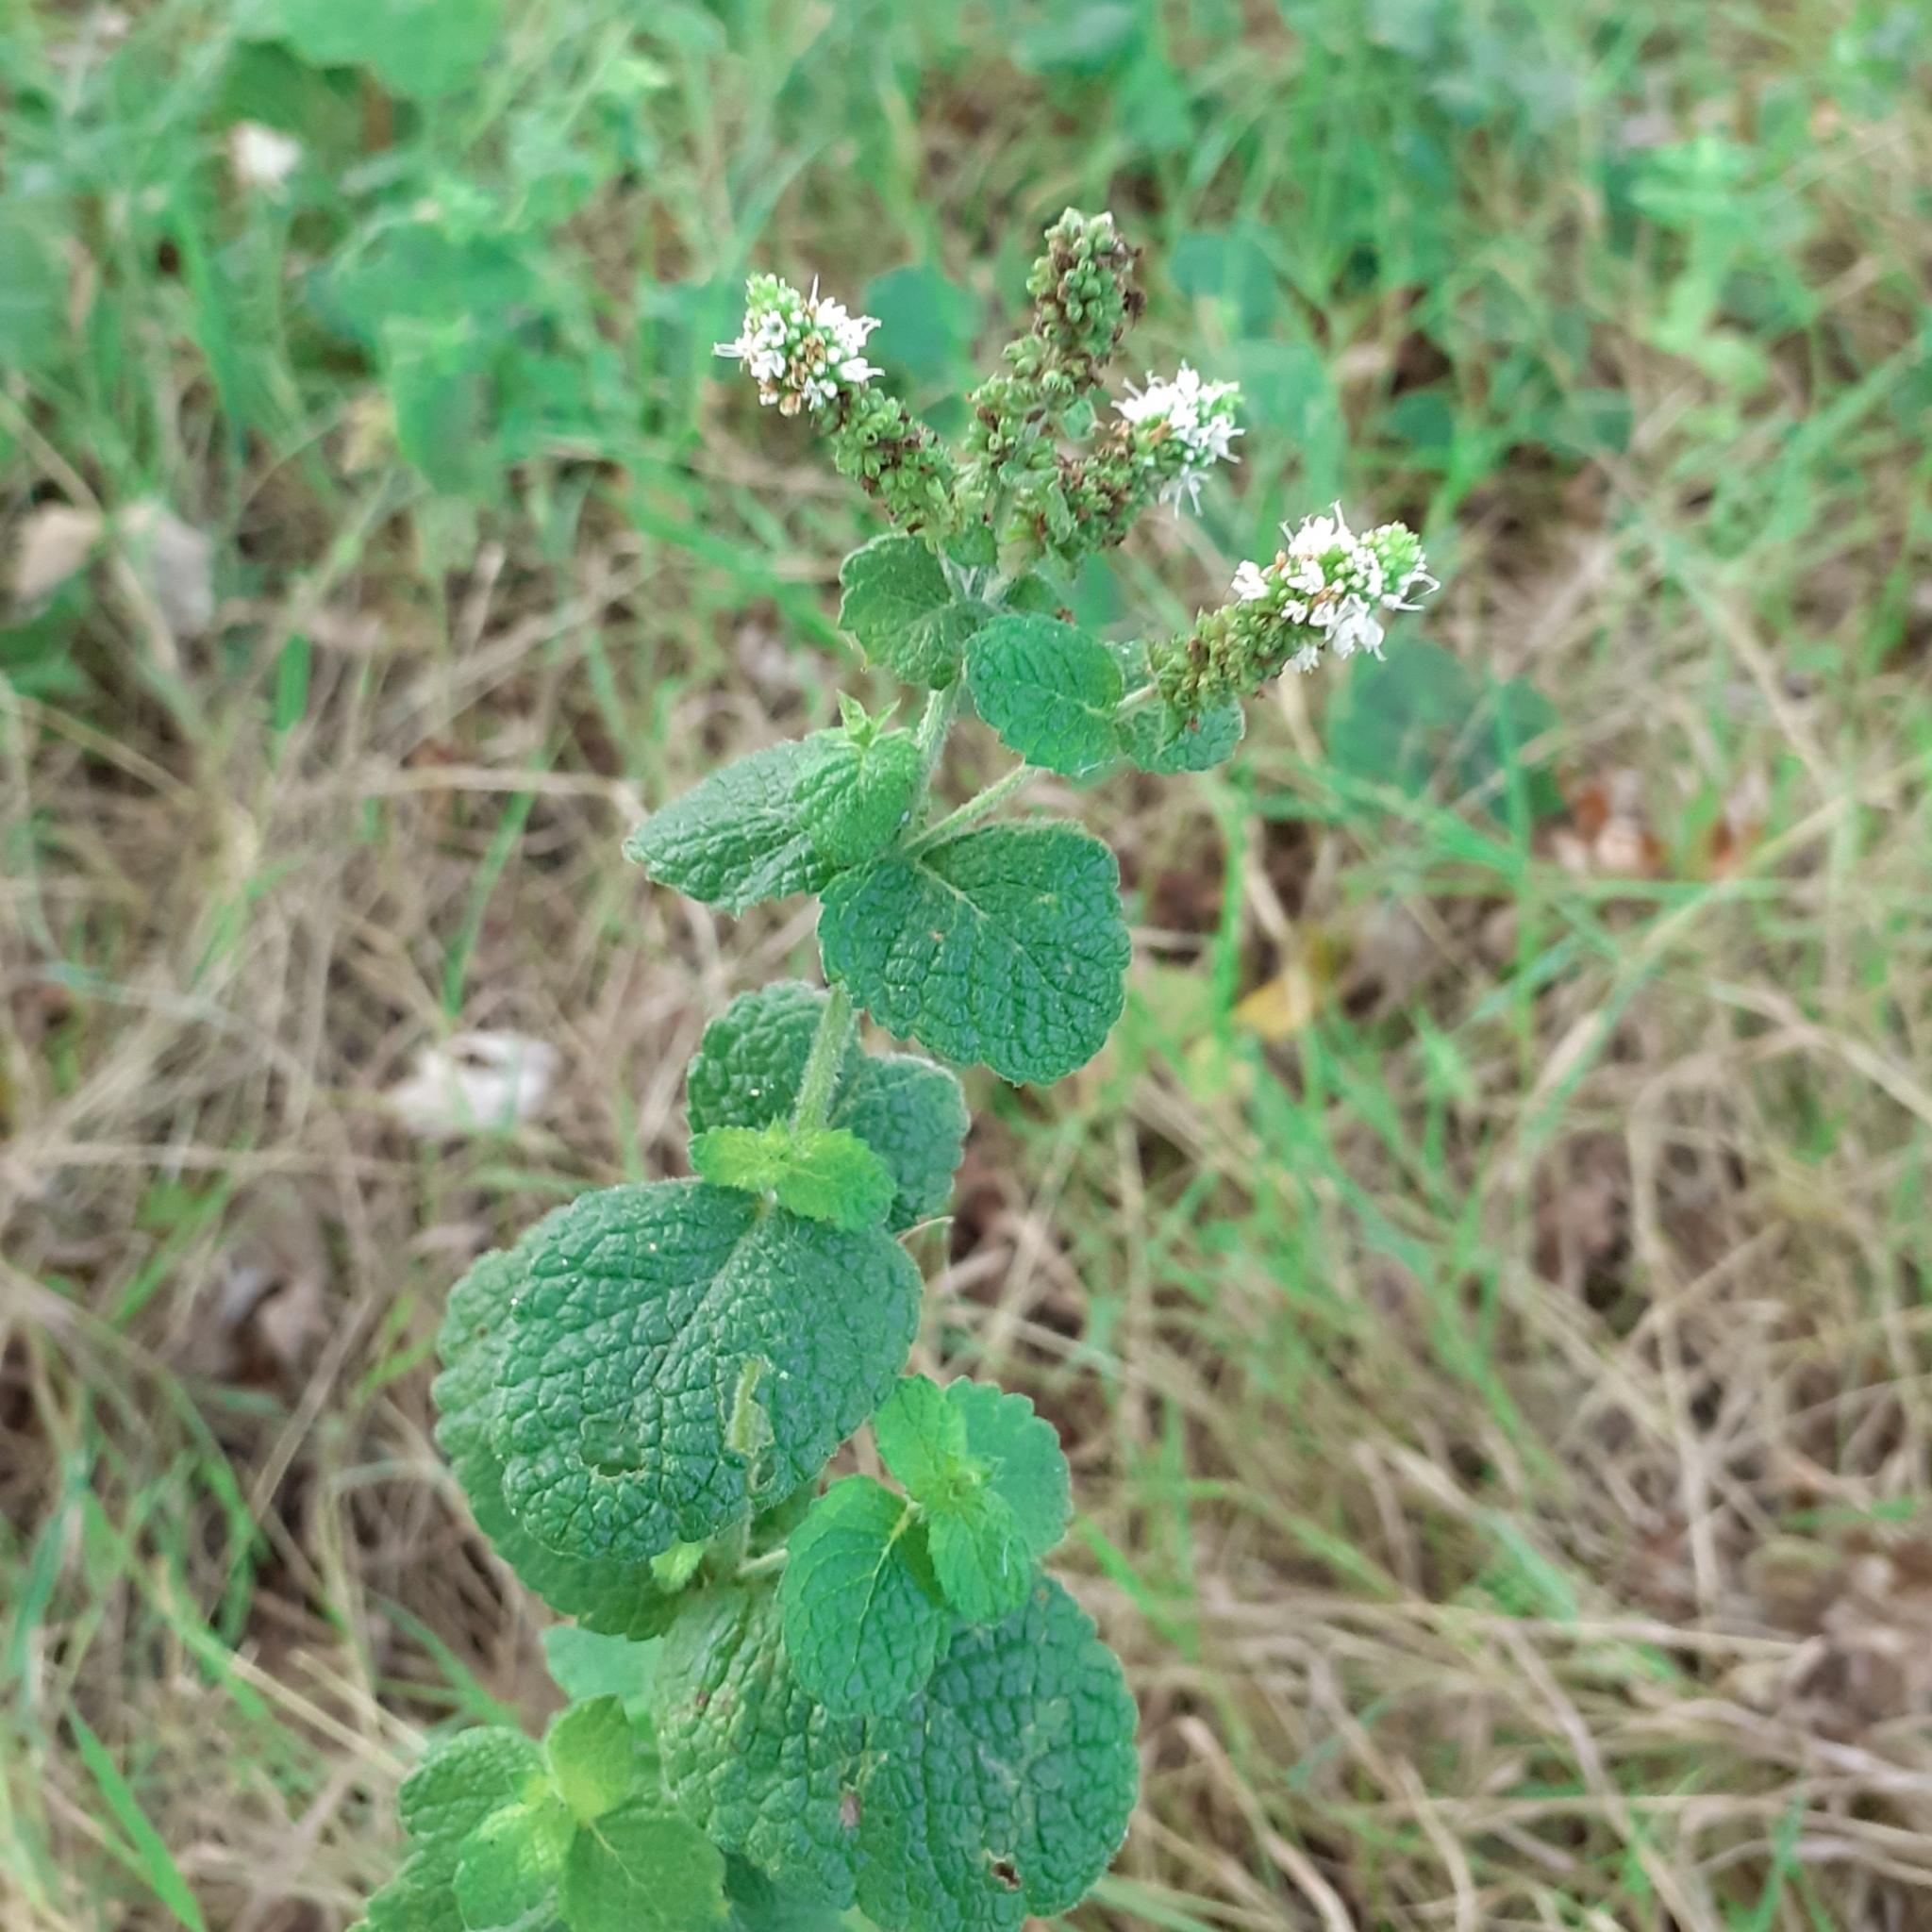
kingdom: Plantae
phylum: Tracheophyta
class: Magnoliopsida
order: Lamiales
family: Lamiaceae
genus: Mentha
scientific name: Mentha suaveolens
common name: Apple mint
